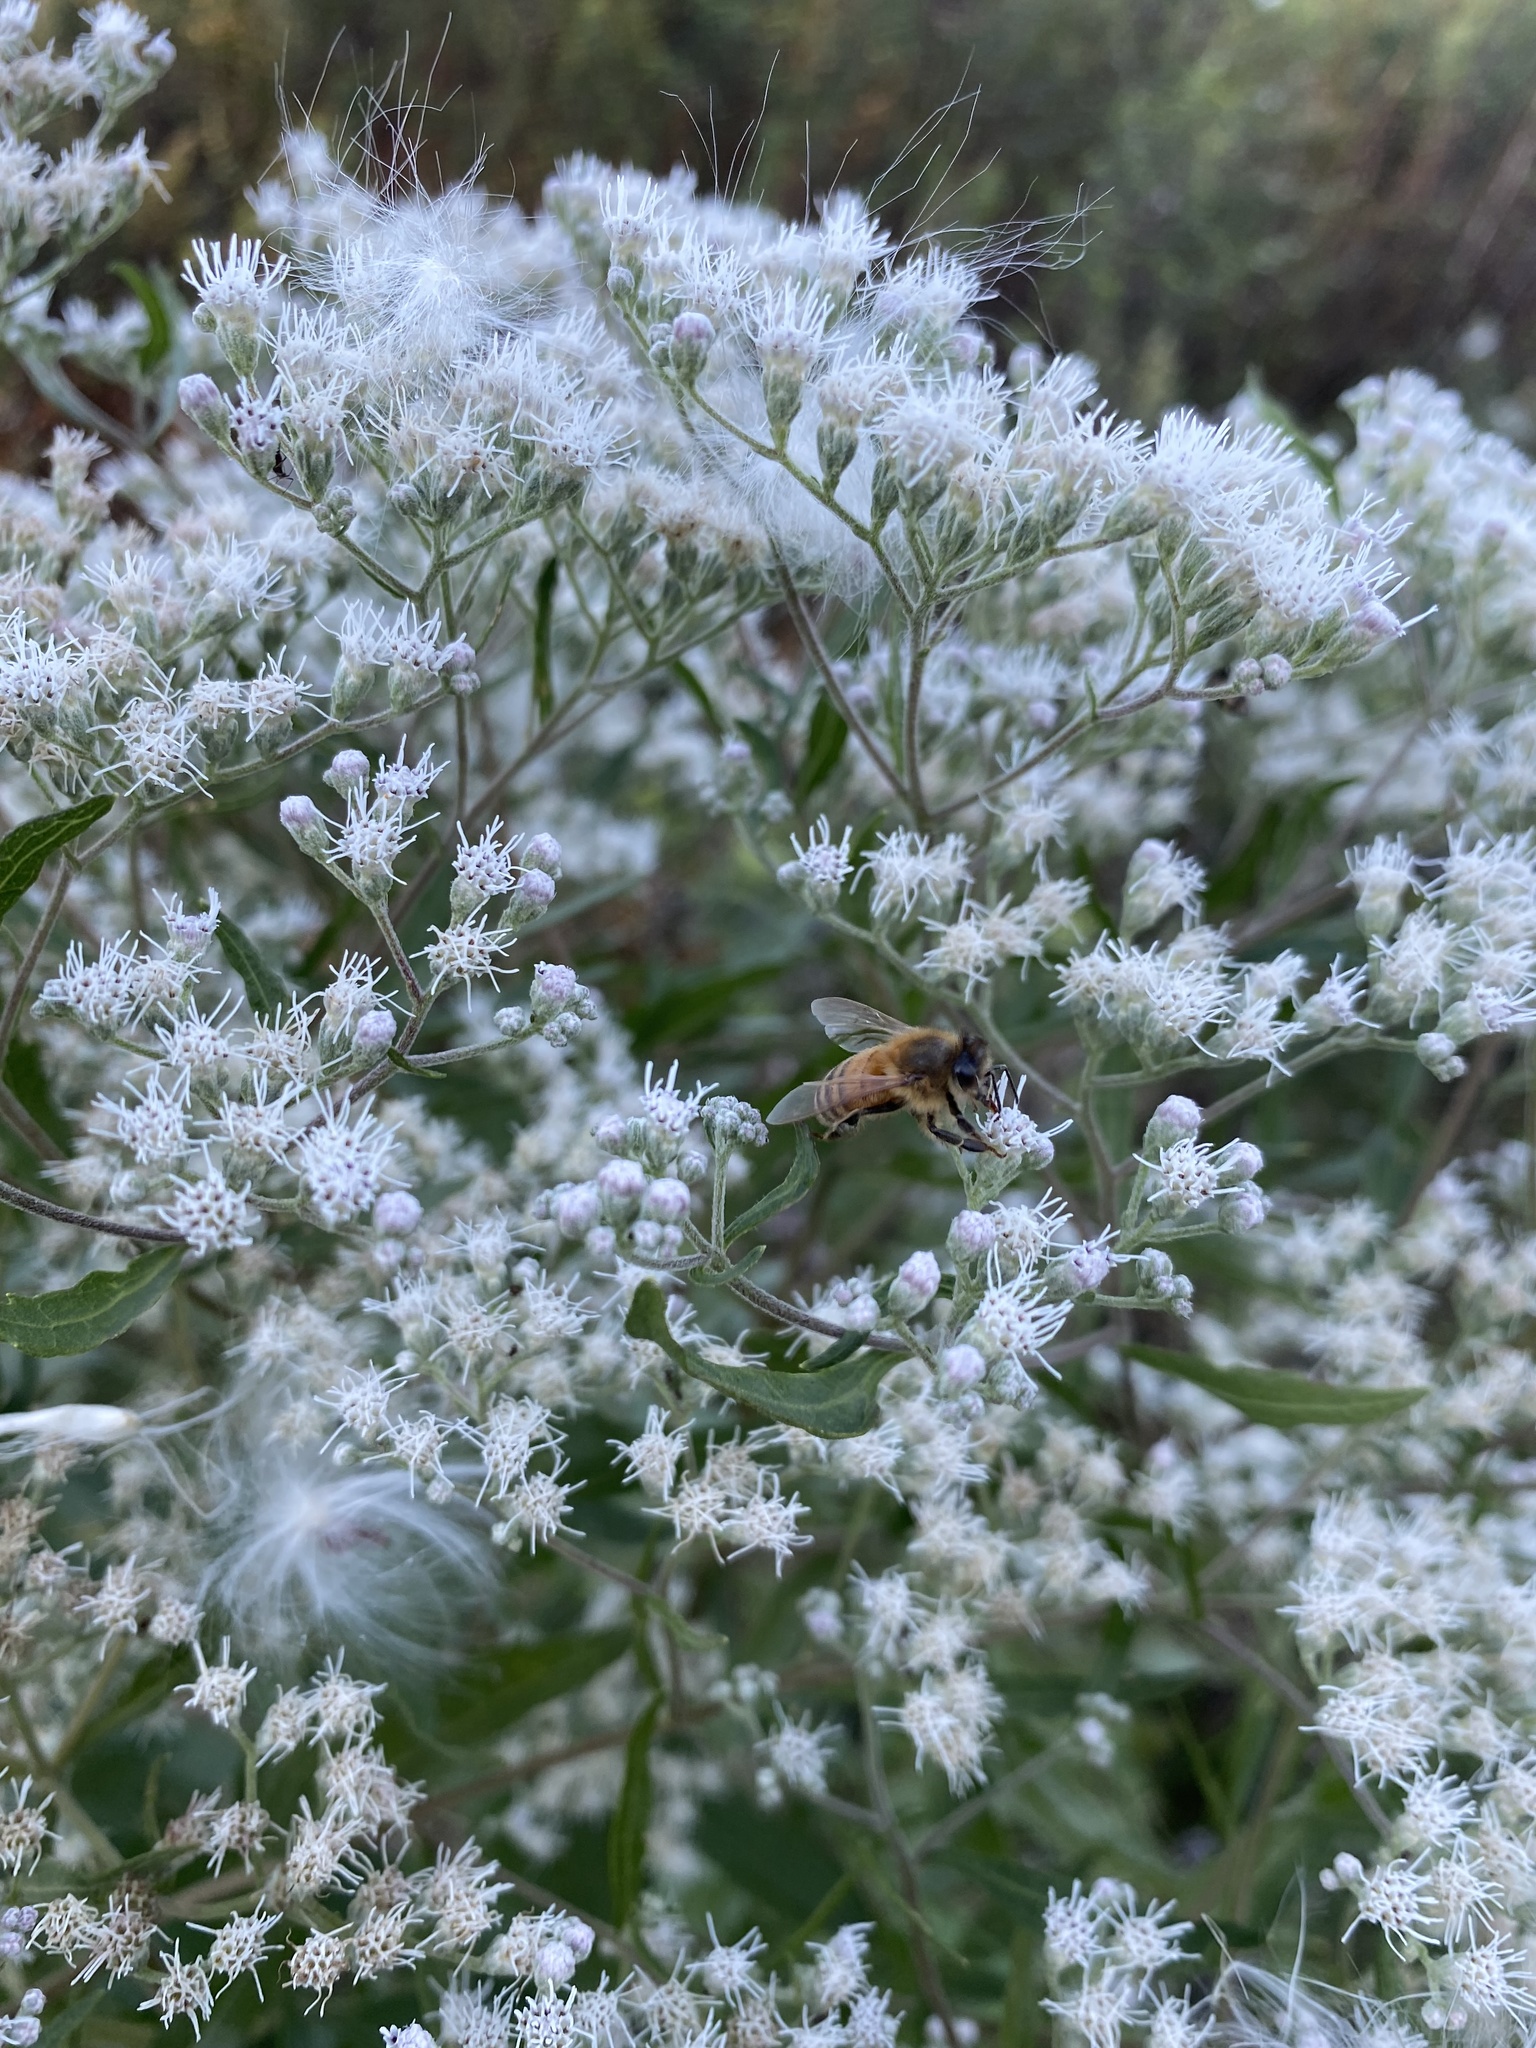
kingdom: Animalia
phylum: Arthropoda
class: Insecta
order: Hymenoptera
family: Apidae
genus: Apis
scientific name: Apis mellifera
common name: Honey bee
